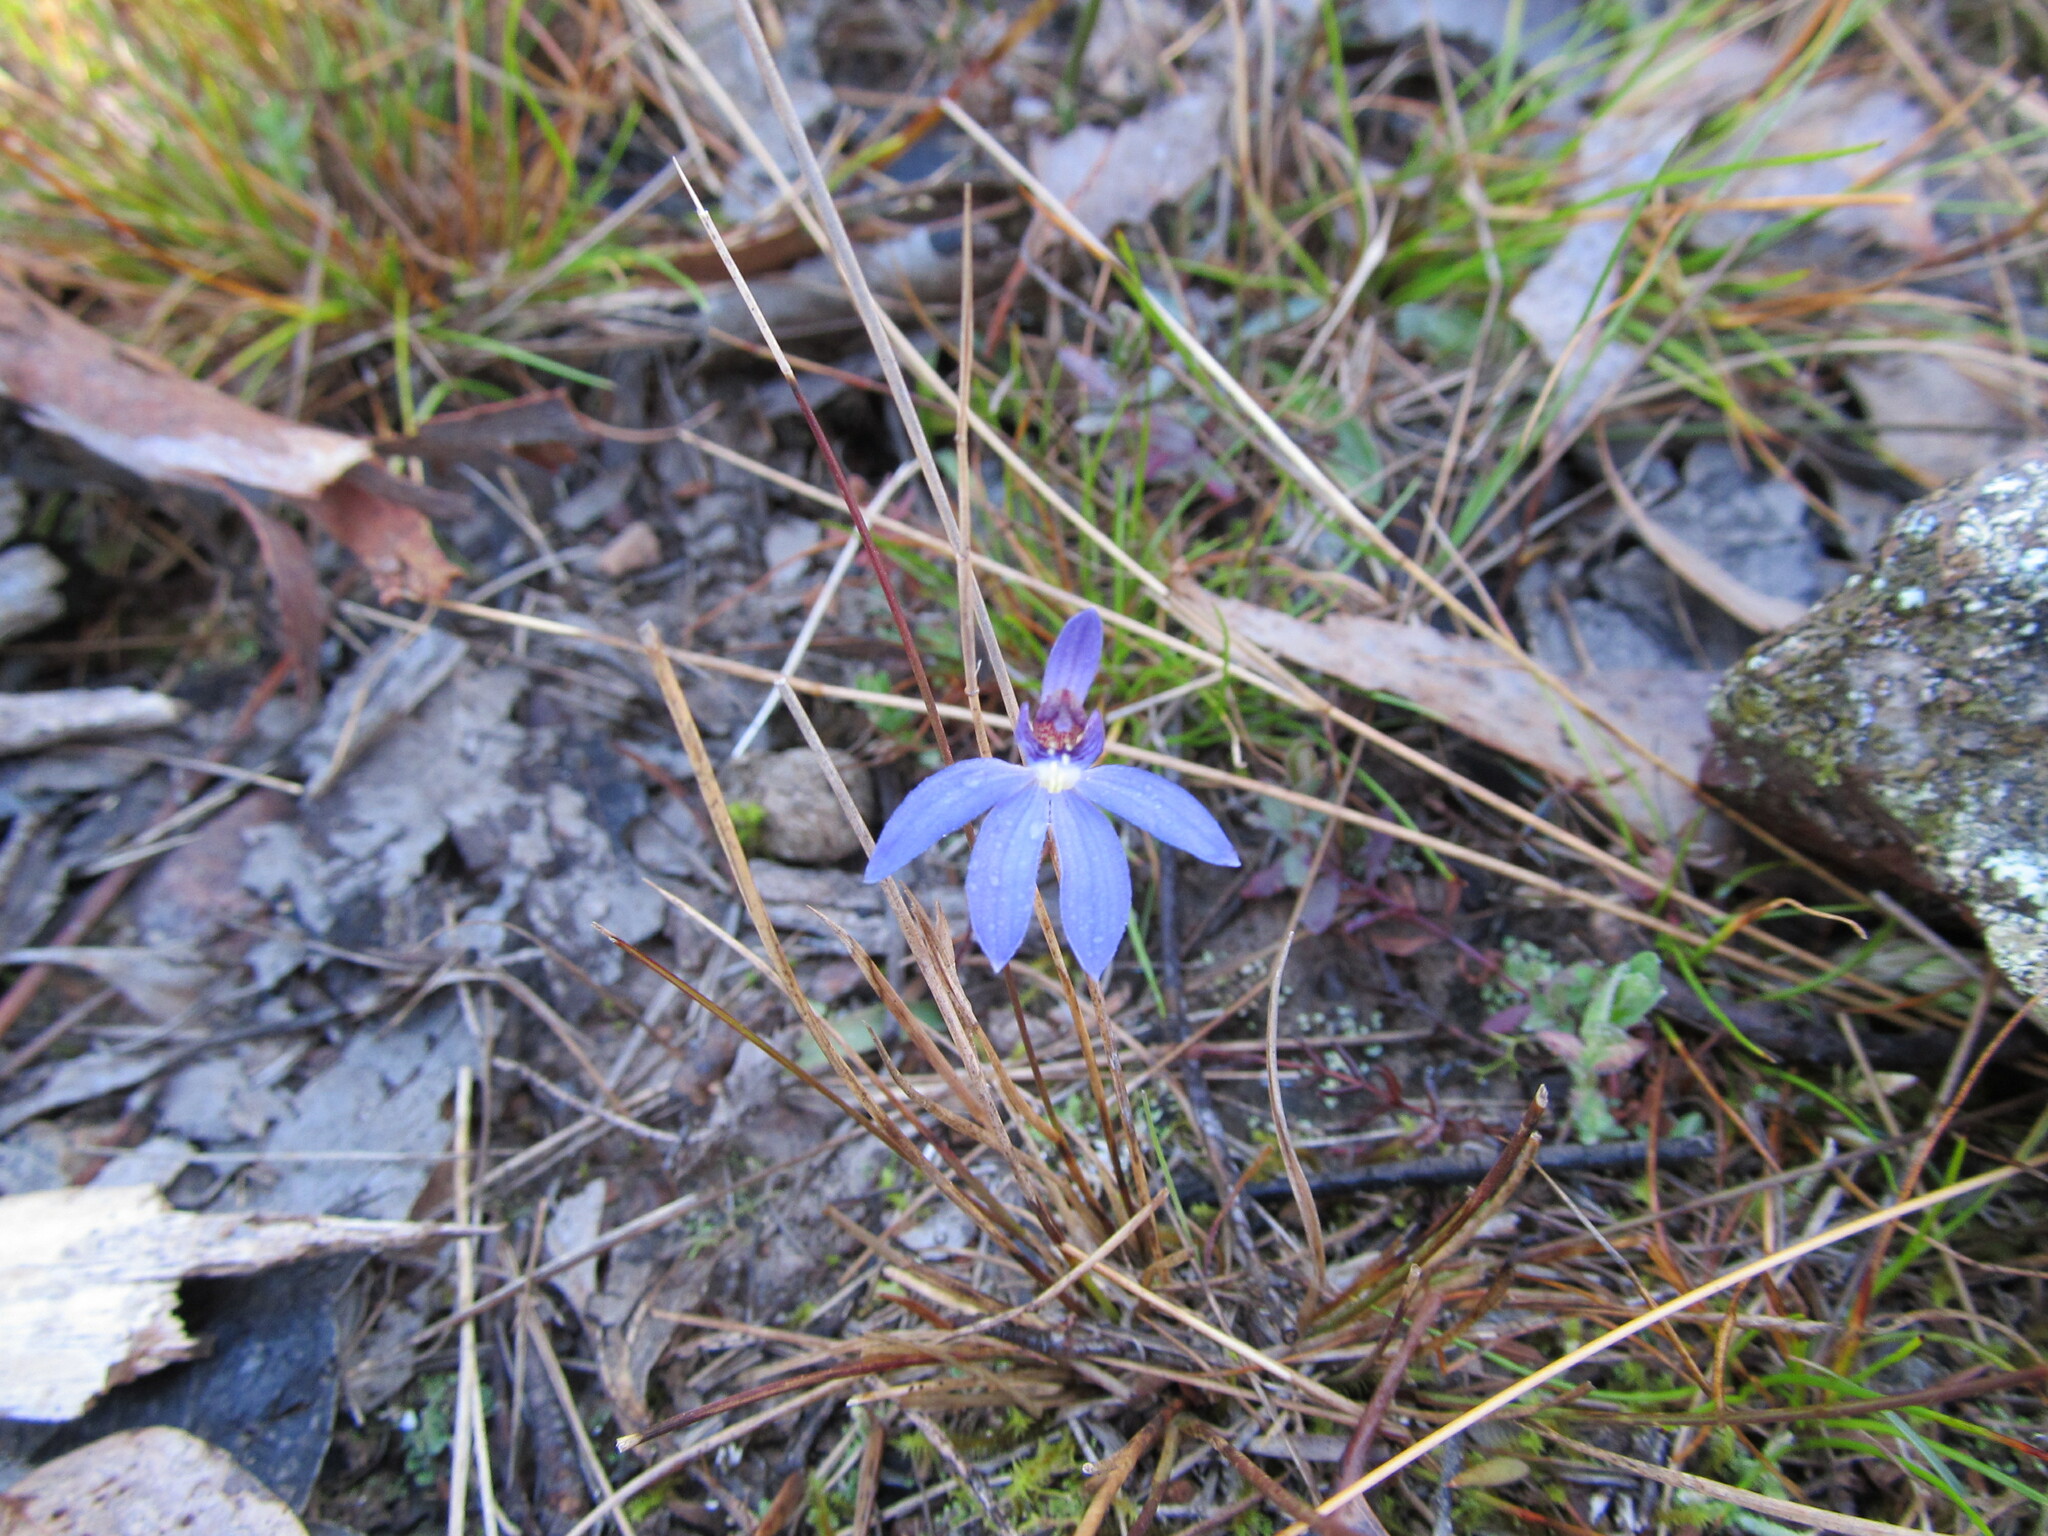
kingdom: Plantae
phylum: Tracheophyta
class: Liliopsida
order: Asparagales
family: Orchidaceae
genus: Caladenia
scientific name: Caladenia caerulea
